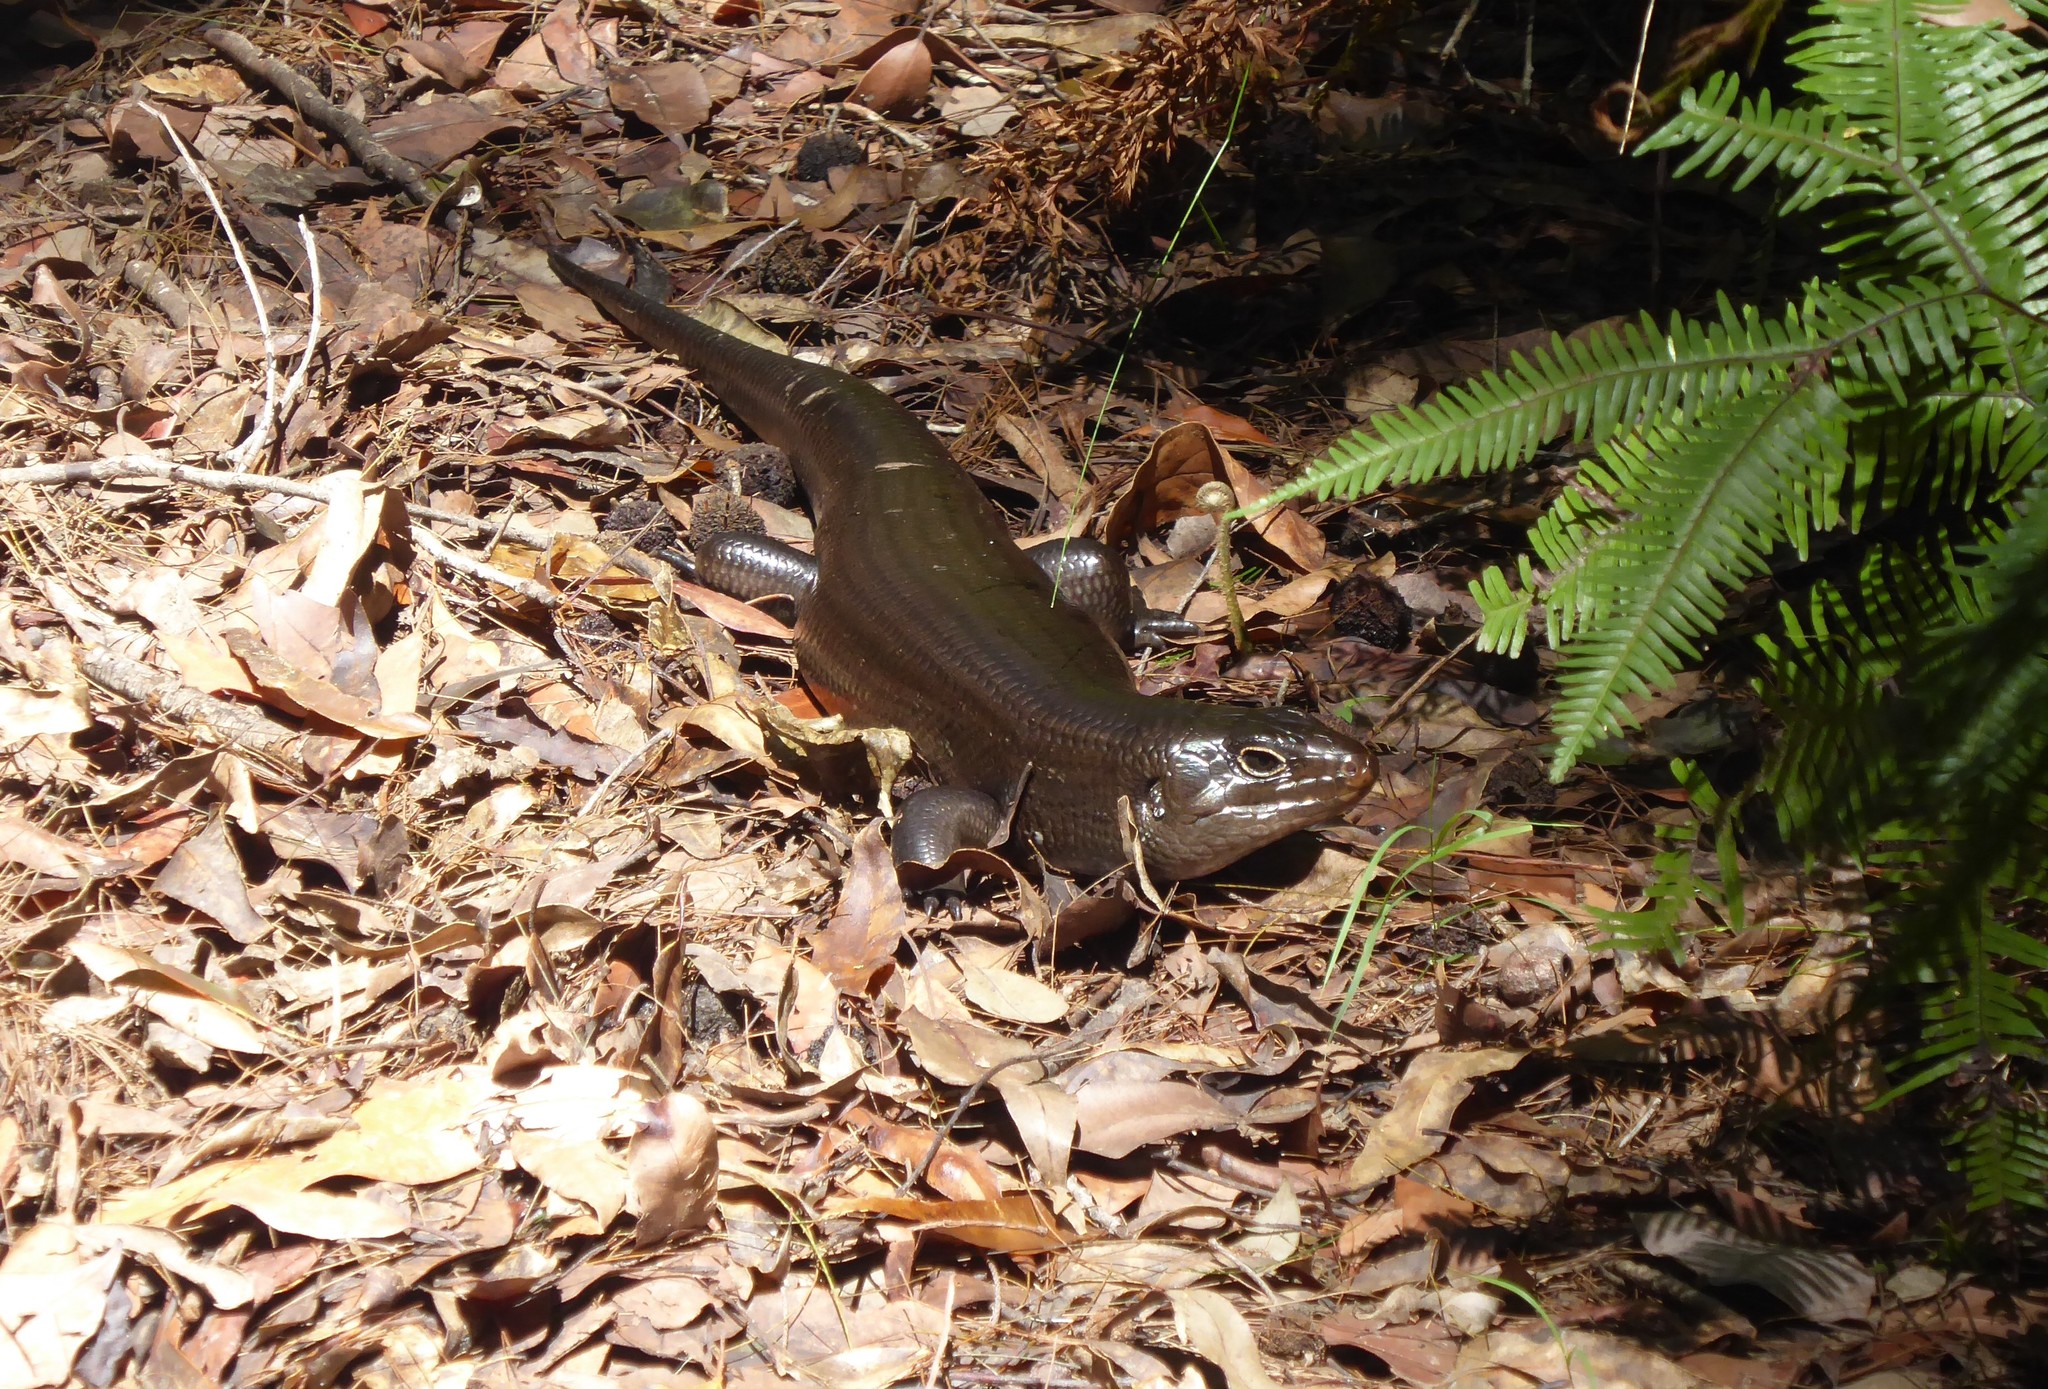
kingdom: Animalia
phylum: Chordata
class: Squamata
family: Scincidae
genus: Bellatorias
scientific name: Bellatorias major
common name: Land mullet
